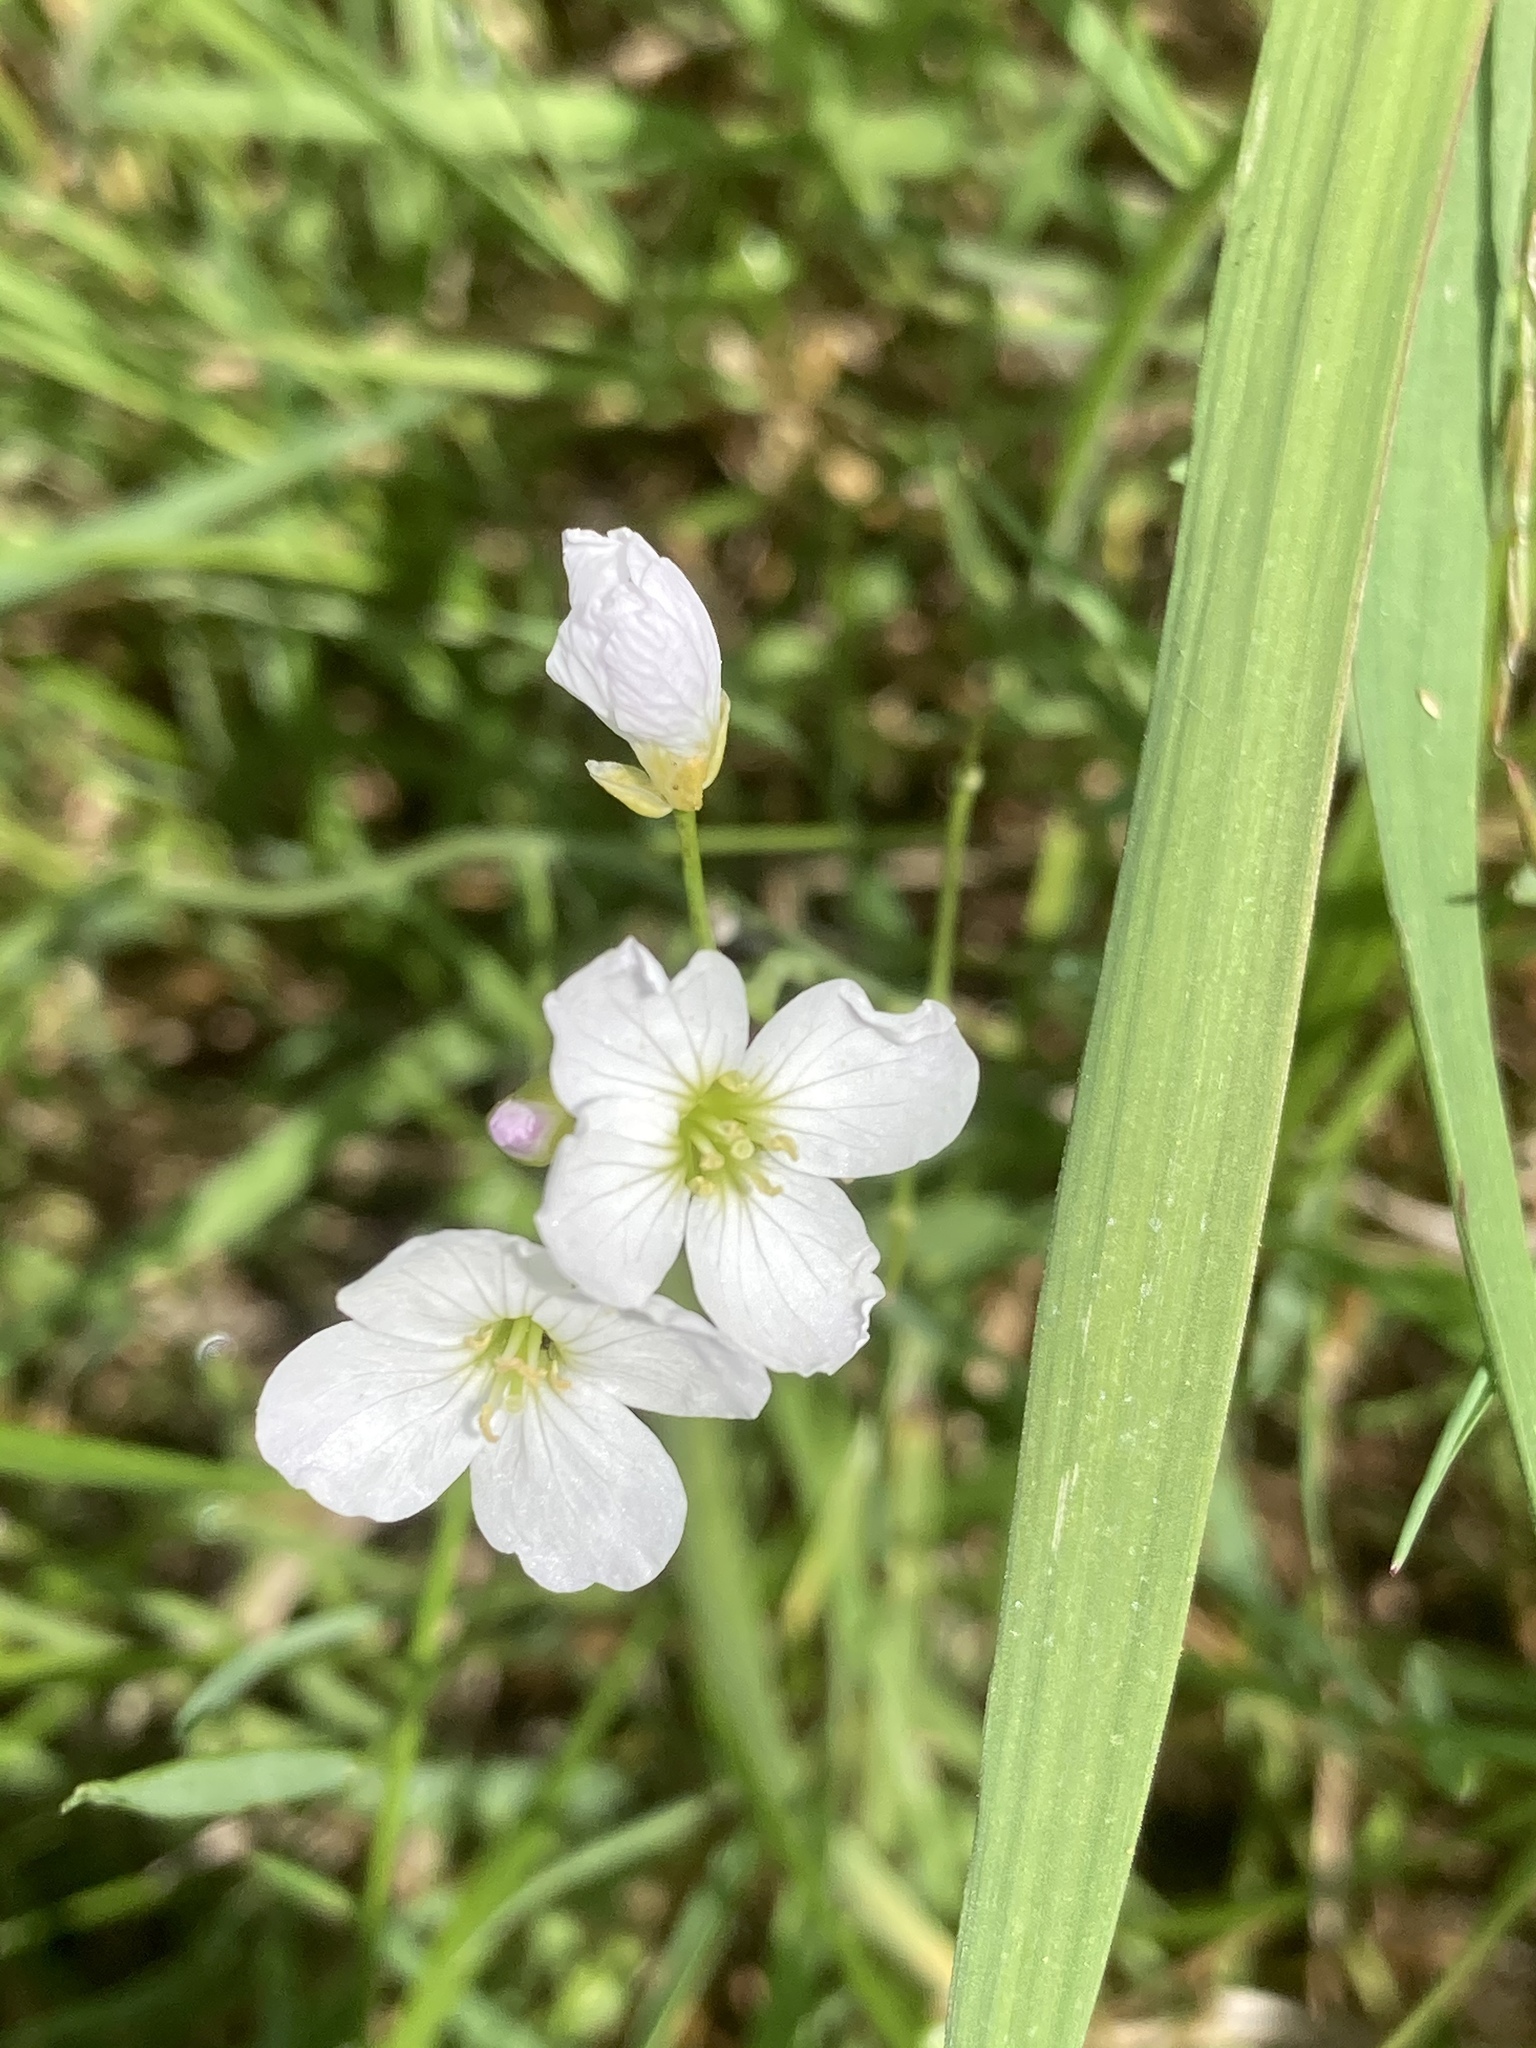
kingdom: Plantae
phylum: Tracheophyta
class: Magnoliopsida
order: Brassicales
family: Brassicaceae
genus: Cardamine
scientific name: Cardamine pratensis
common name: Cuckoo flower
